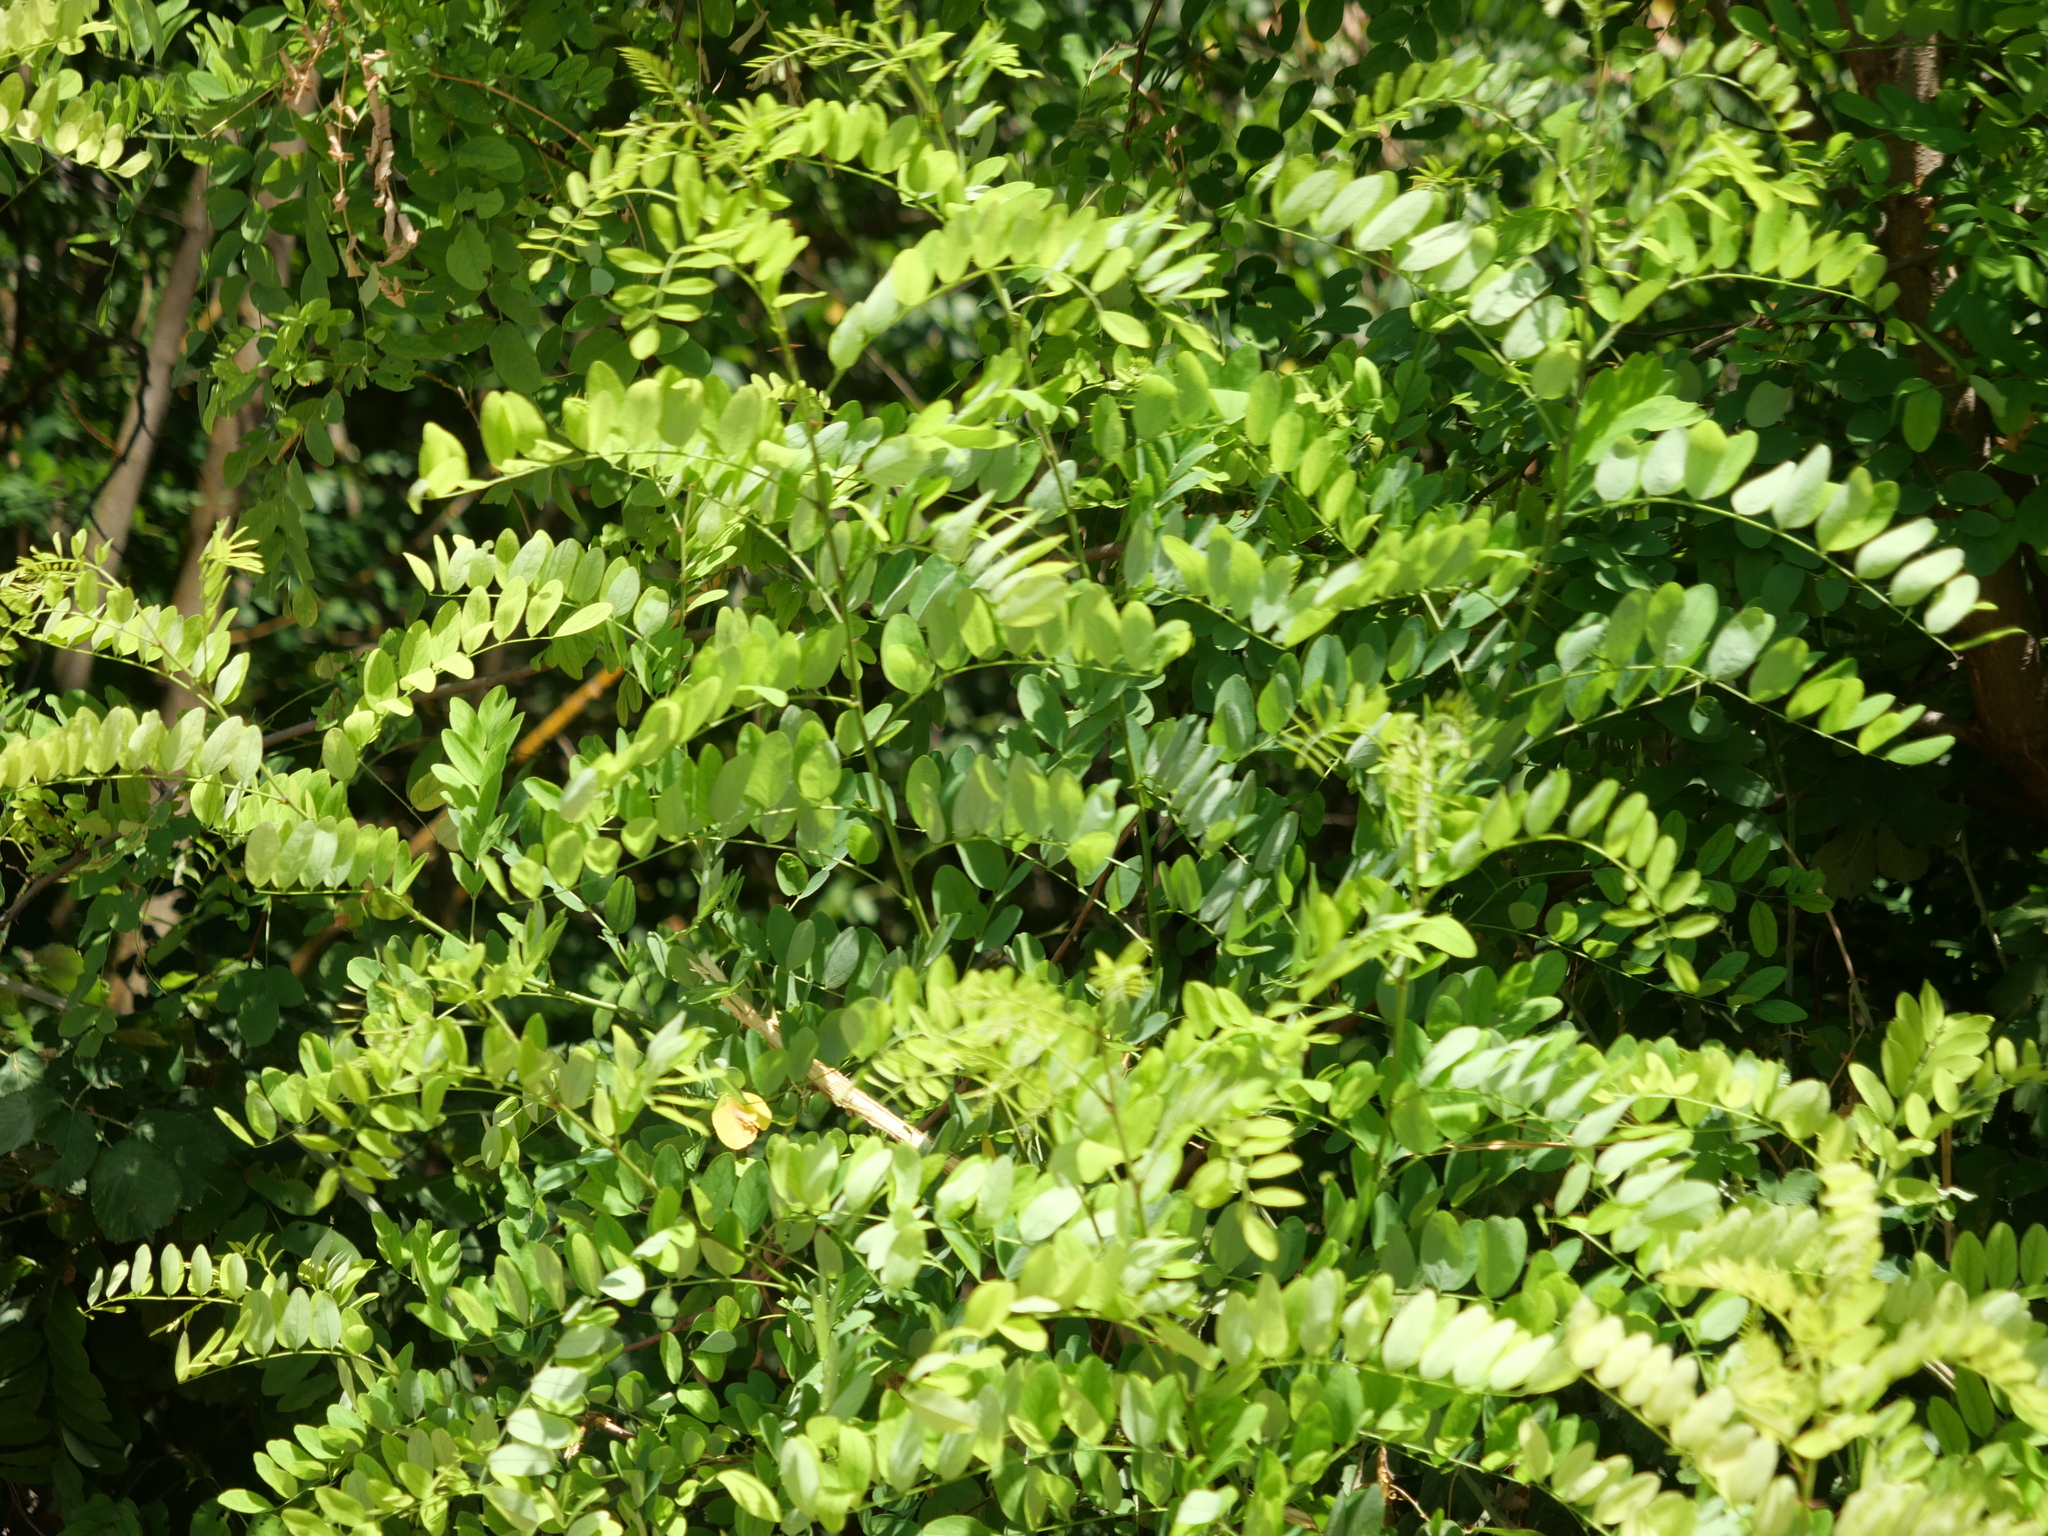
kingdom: Plantae
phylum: Tracheophyta
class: Magnoliopsida
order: Fabales
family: Fabaceae
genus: Robinia
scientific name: Robinia pseudoacacia
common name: Black locust
